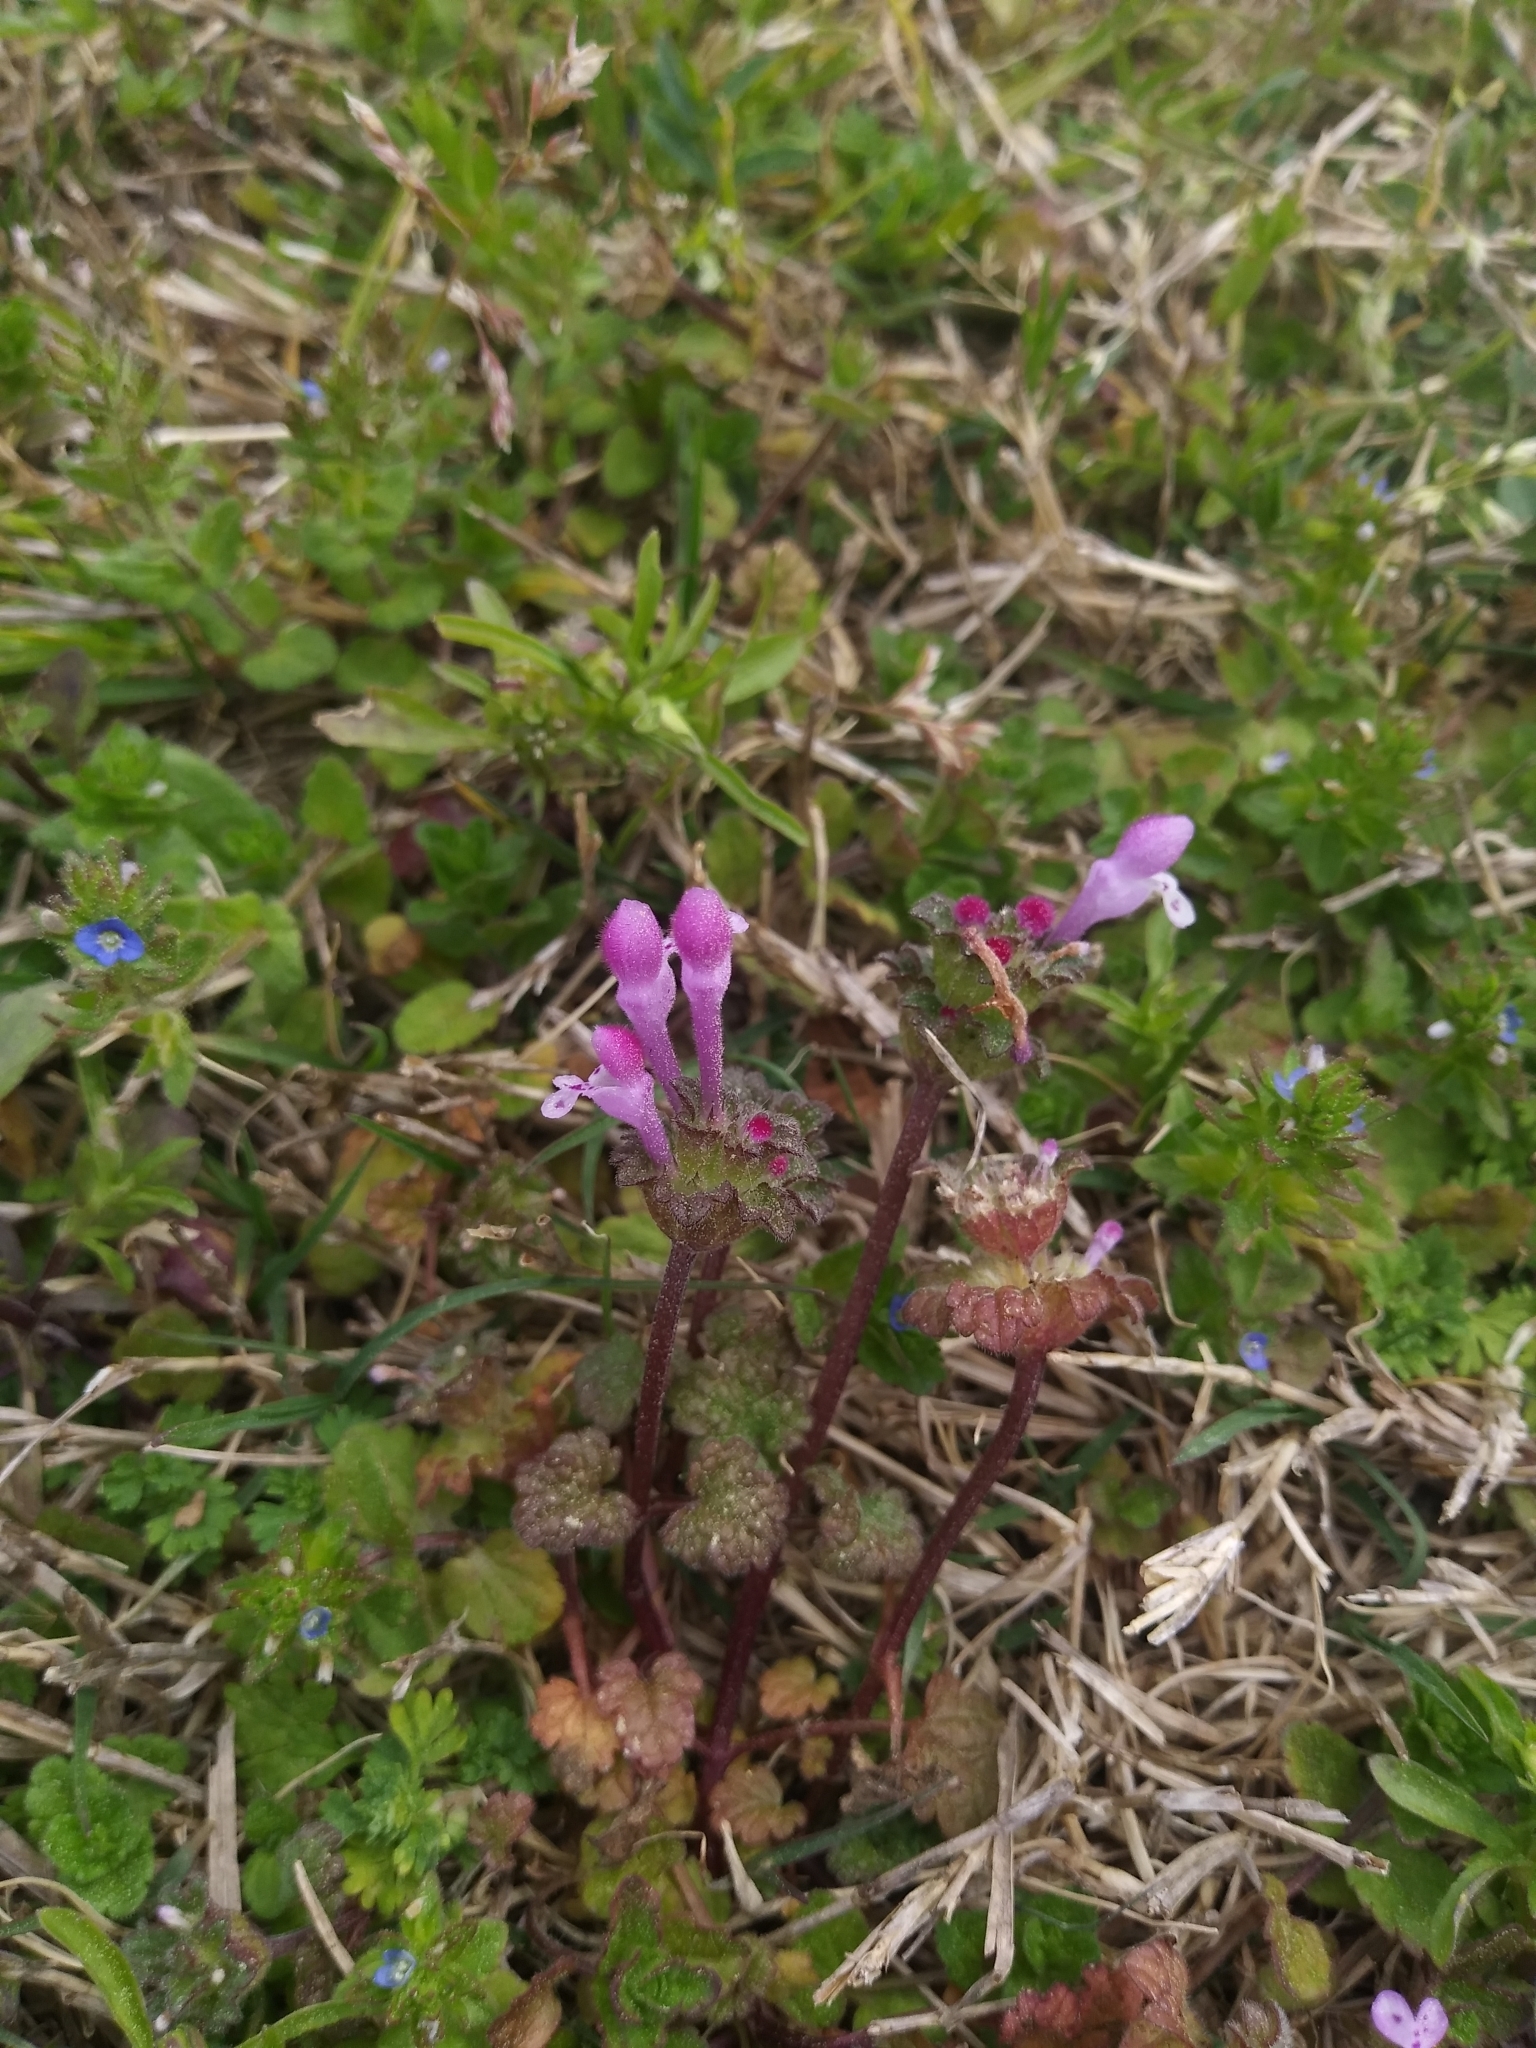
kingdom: Plantae
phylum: Tracheophyta
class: Magnoliopsida
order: Lamiales
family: Lamiaceae
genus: Lamium
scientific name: Lamium amplexicaule
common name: Henbit dead-nettle
